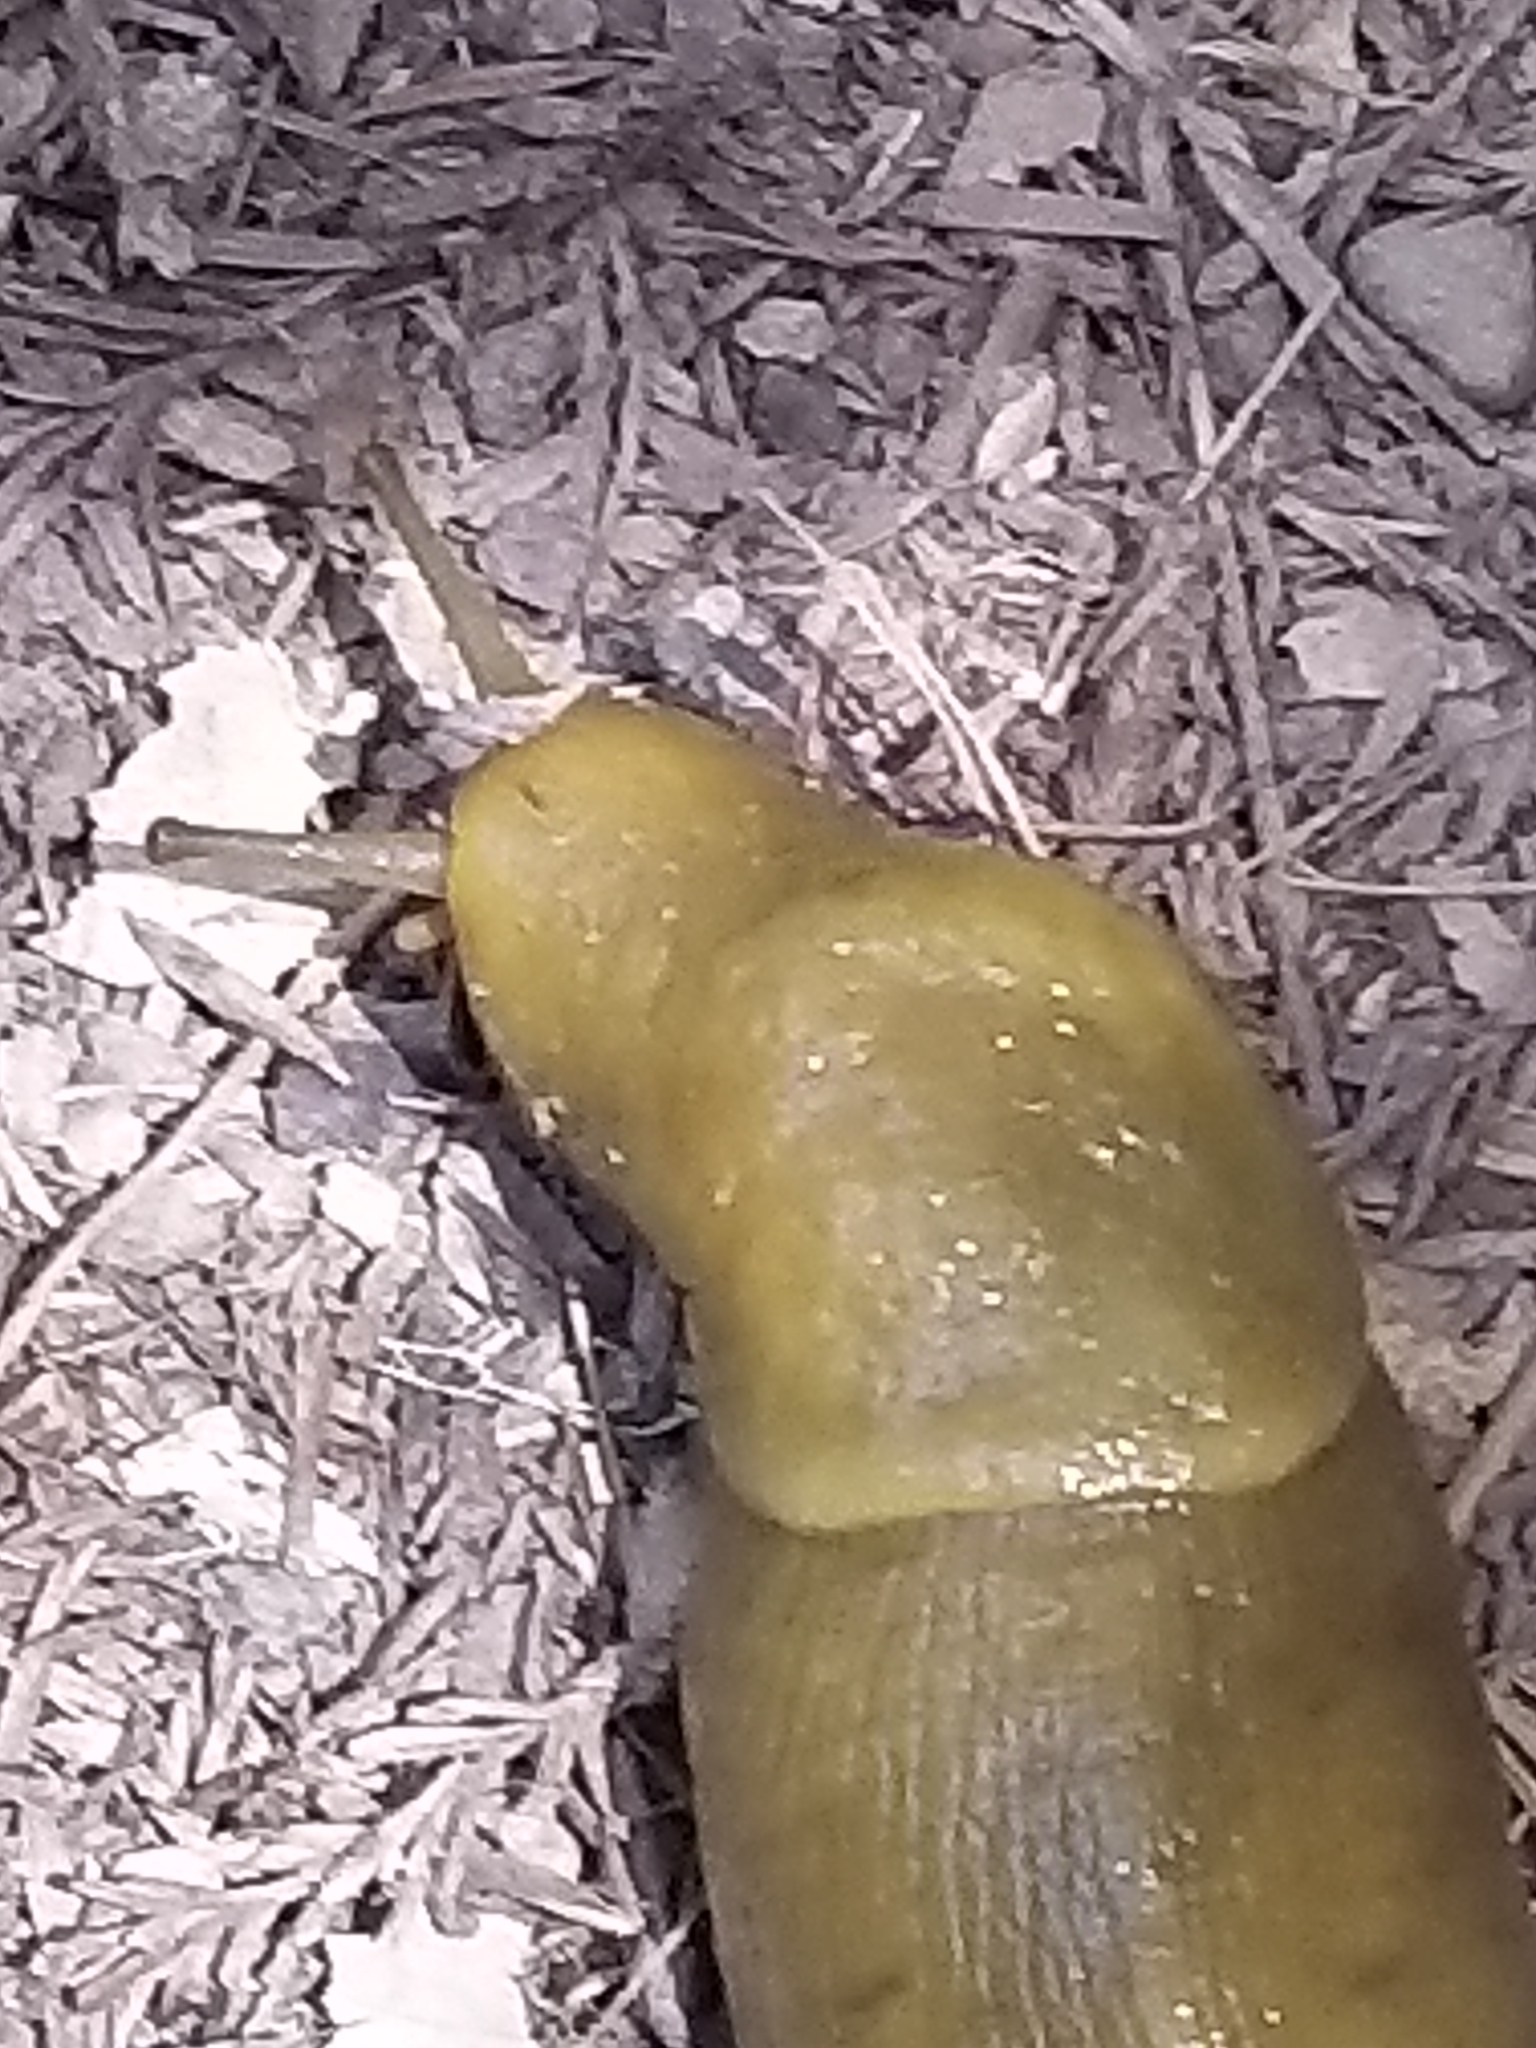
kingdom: Animalia
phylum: Mollusca
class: Gastropoda
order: Stylommatophora
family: Ariolimacidae
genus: Ariolimax
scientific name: Ariolimax buttoni
